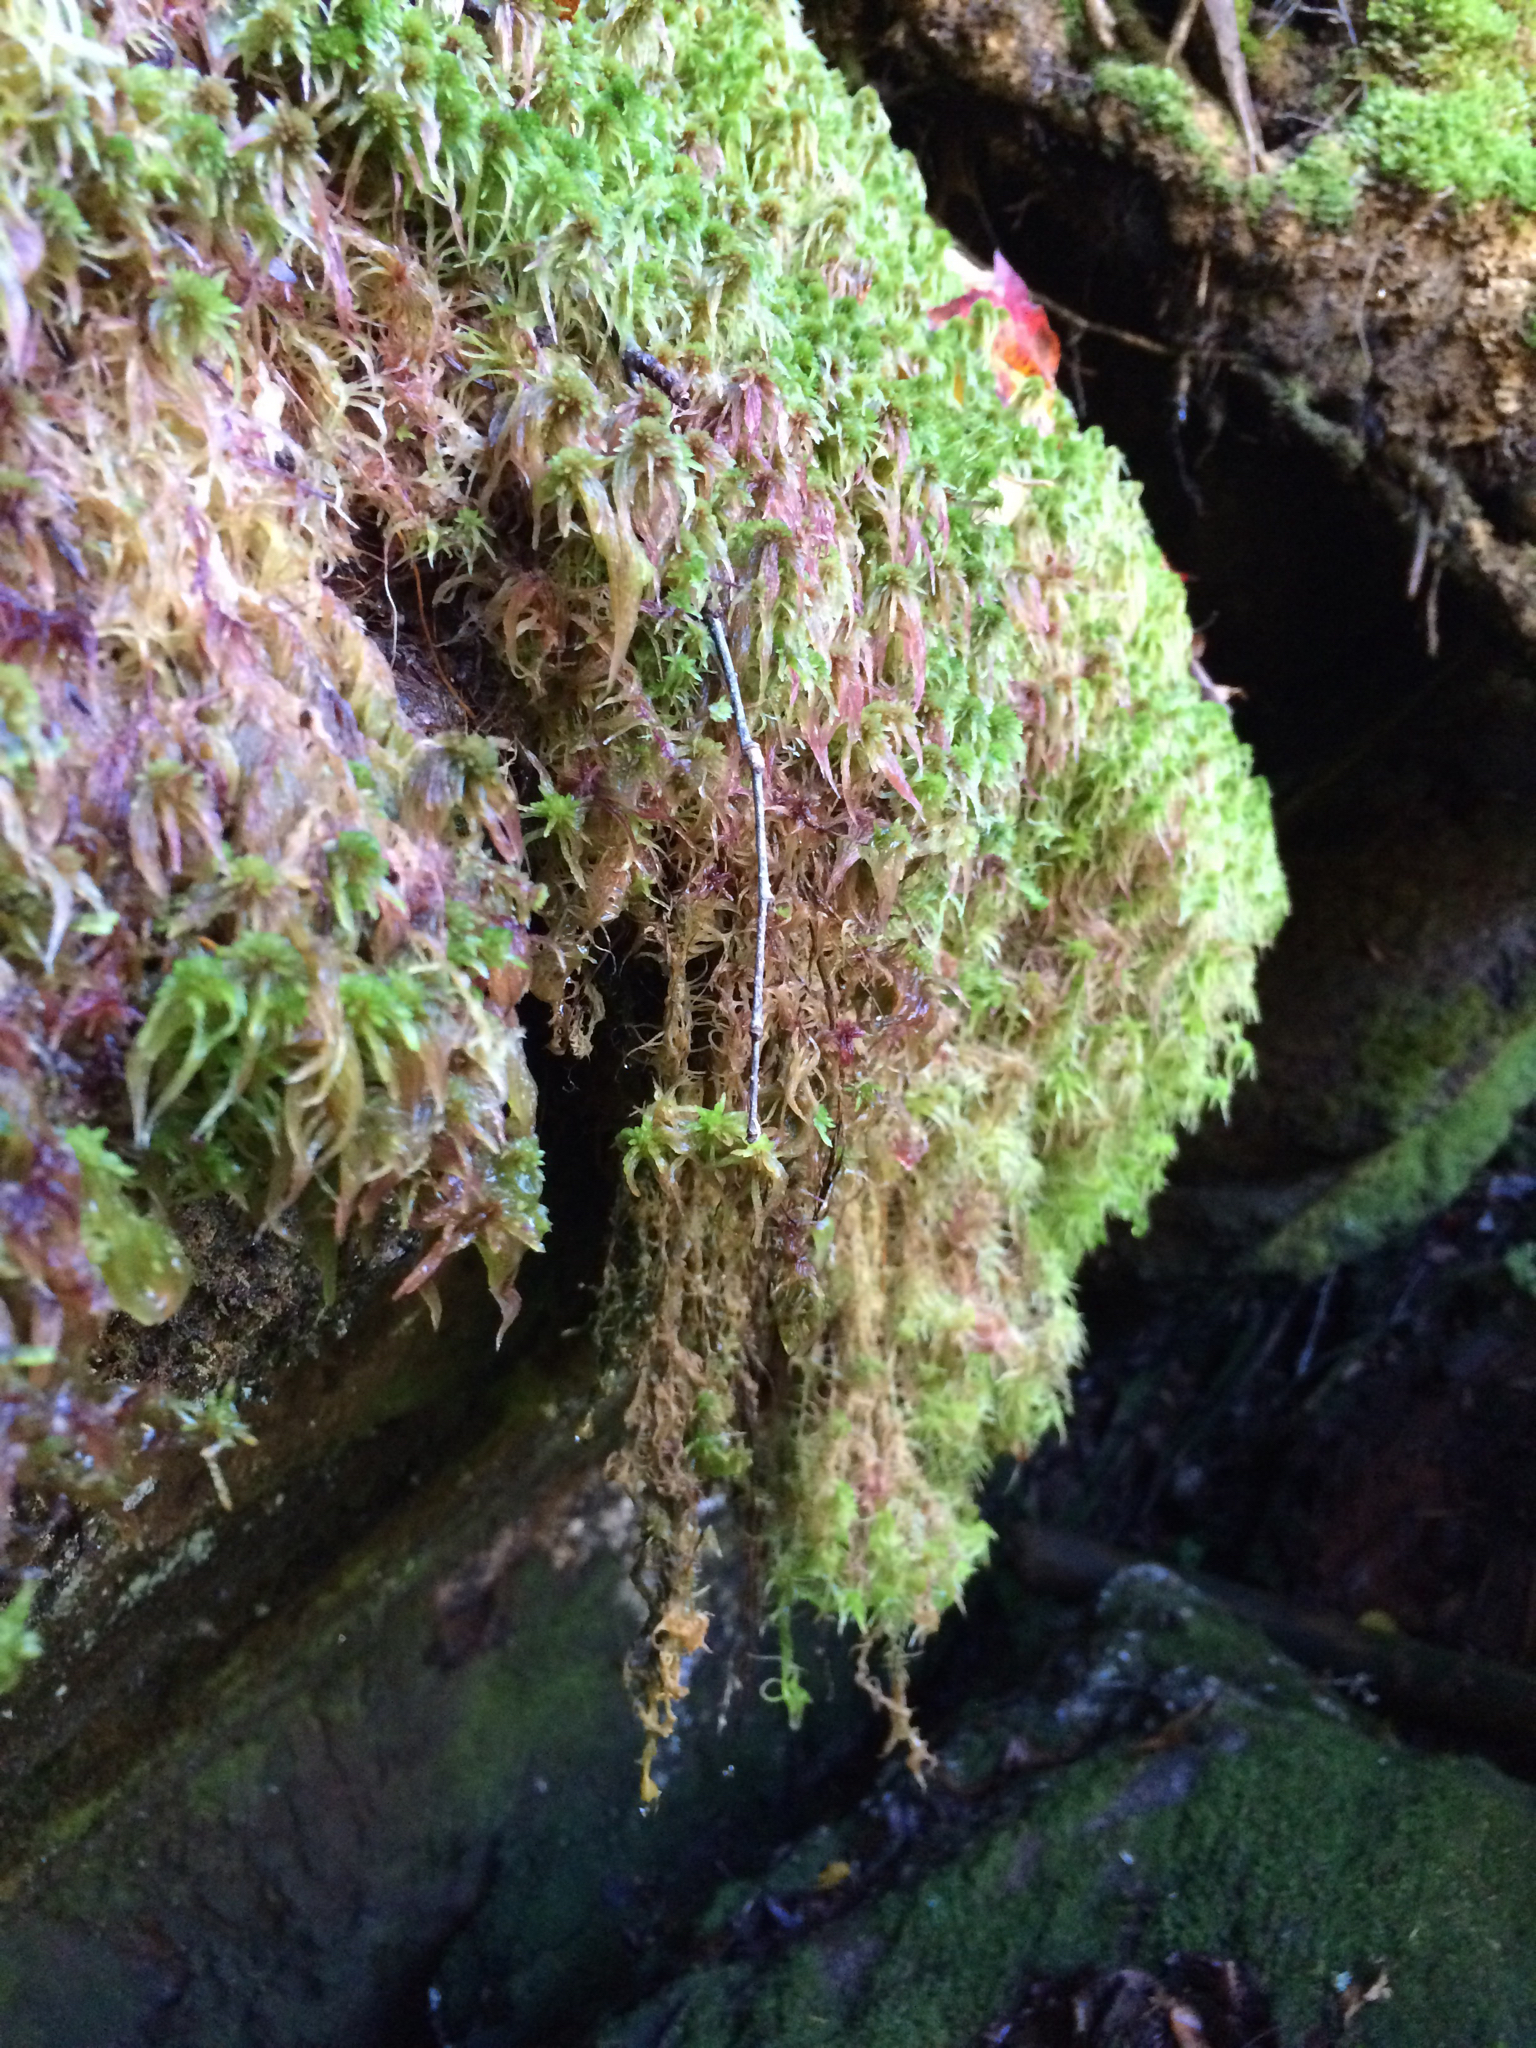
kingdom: Plantae
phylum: Bryophyta
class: Sphagnopsida
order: Sphagnales
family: Sphagnaceae
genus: Sphagnum
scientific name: Sphagnum
